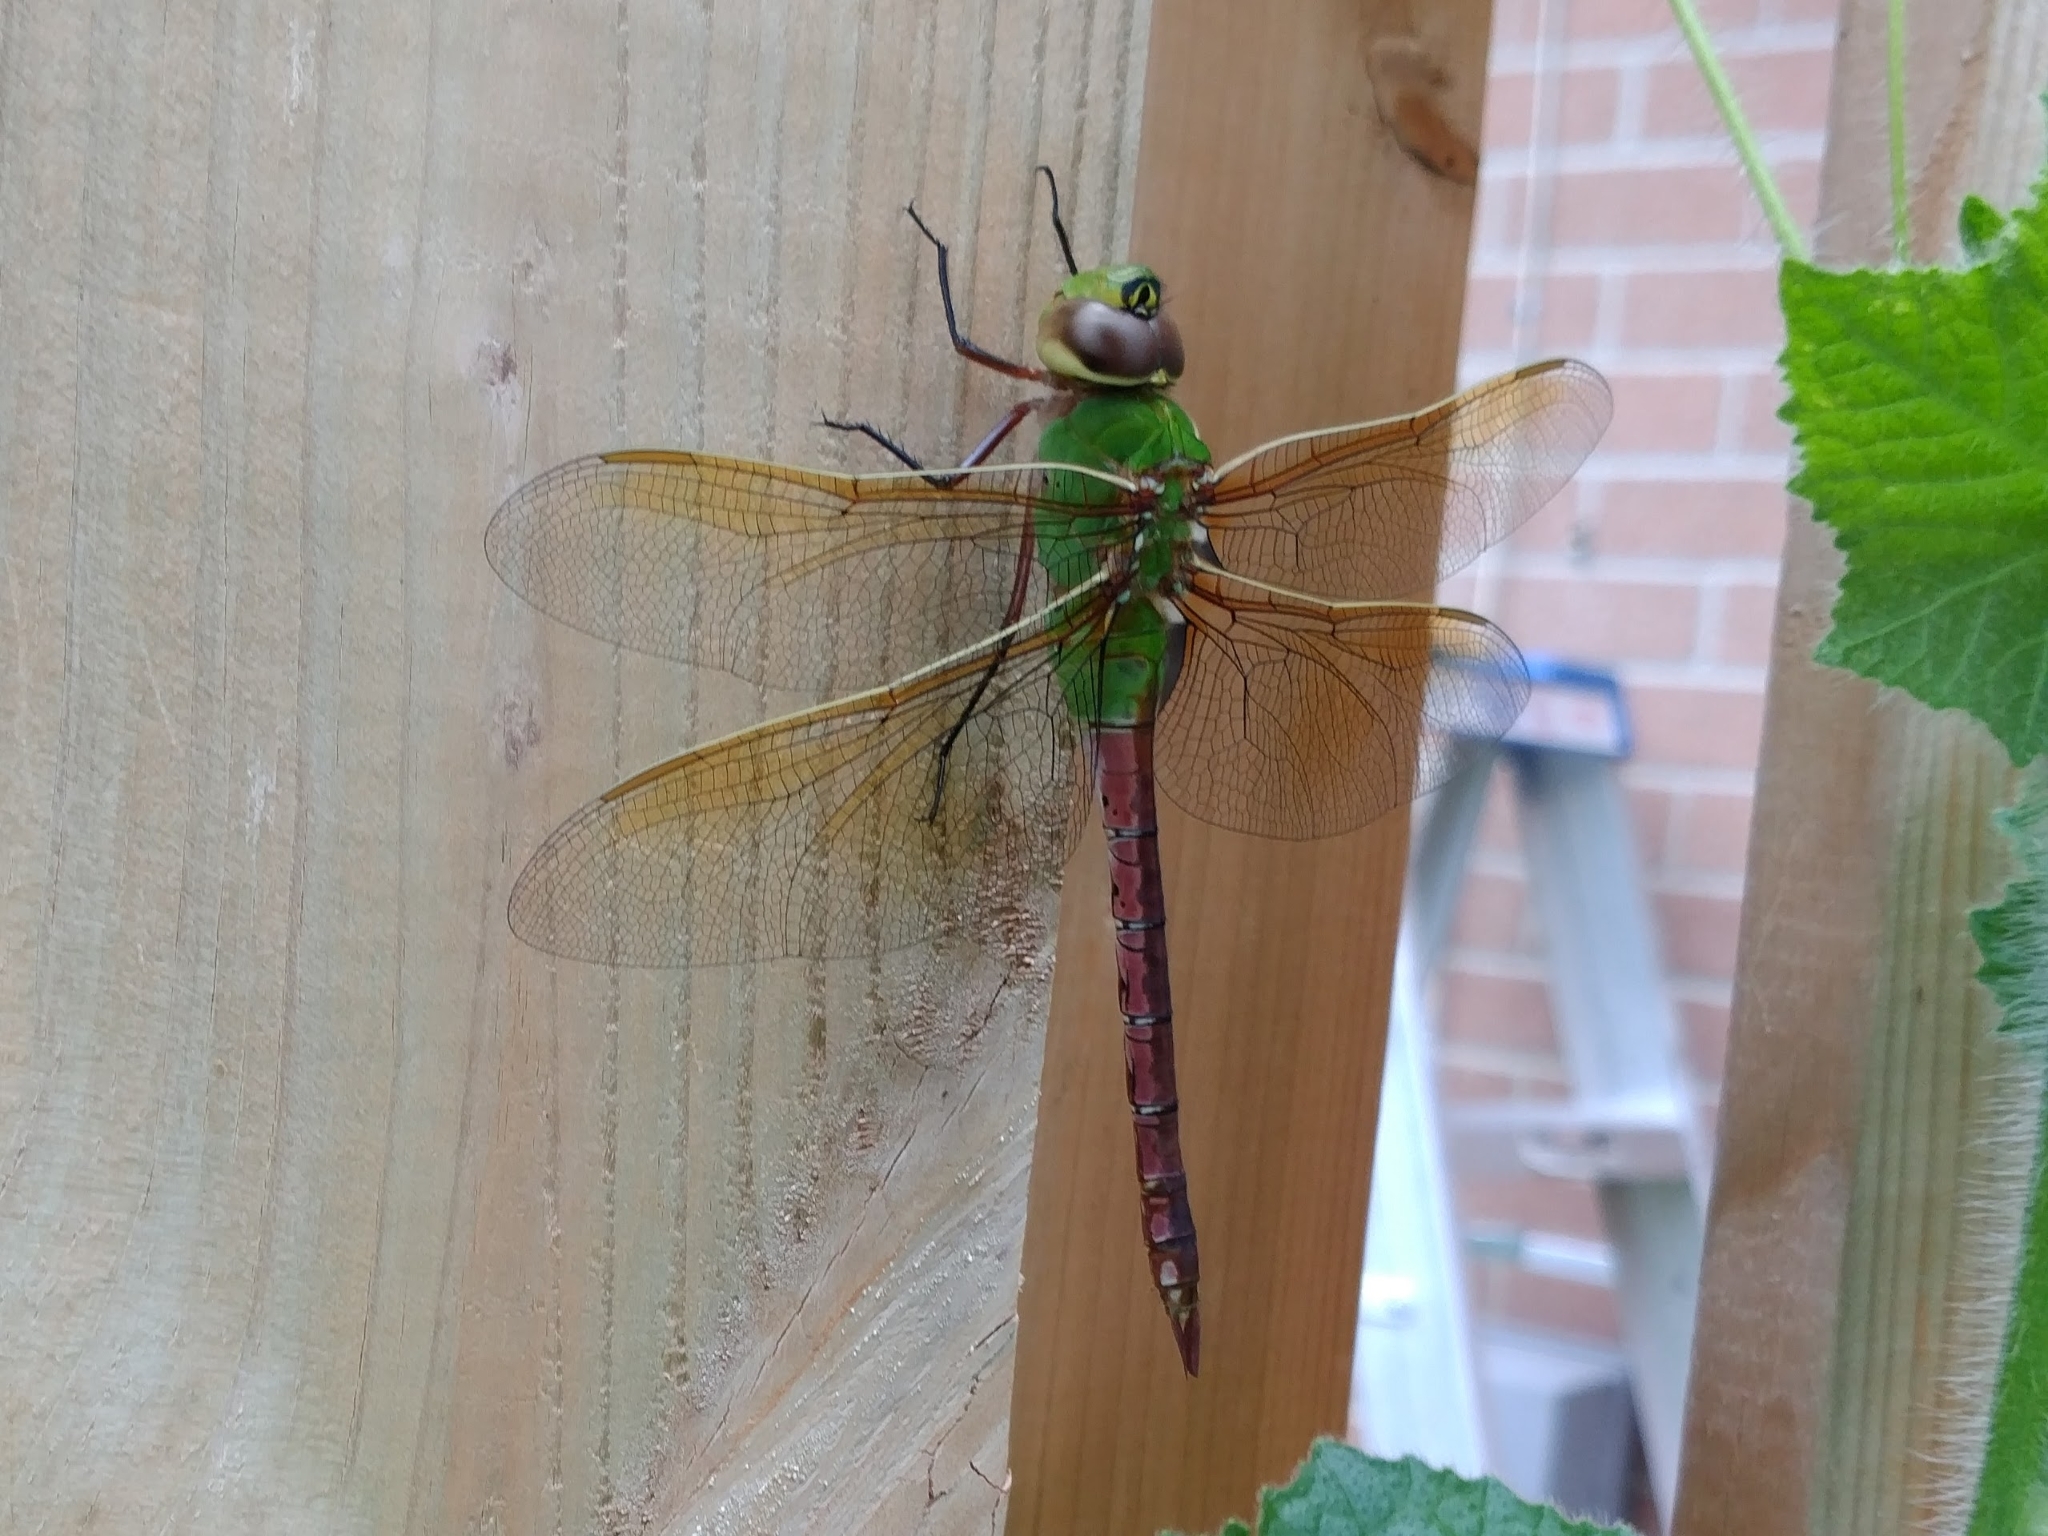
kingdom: Animalia
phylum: Arthropoda
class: Insecta
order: Odonata
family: Aeshnidae
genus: Anax
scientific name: Anax junius
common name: Common green darner
